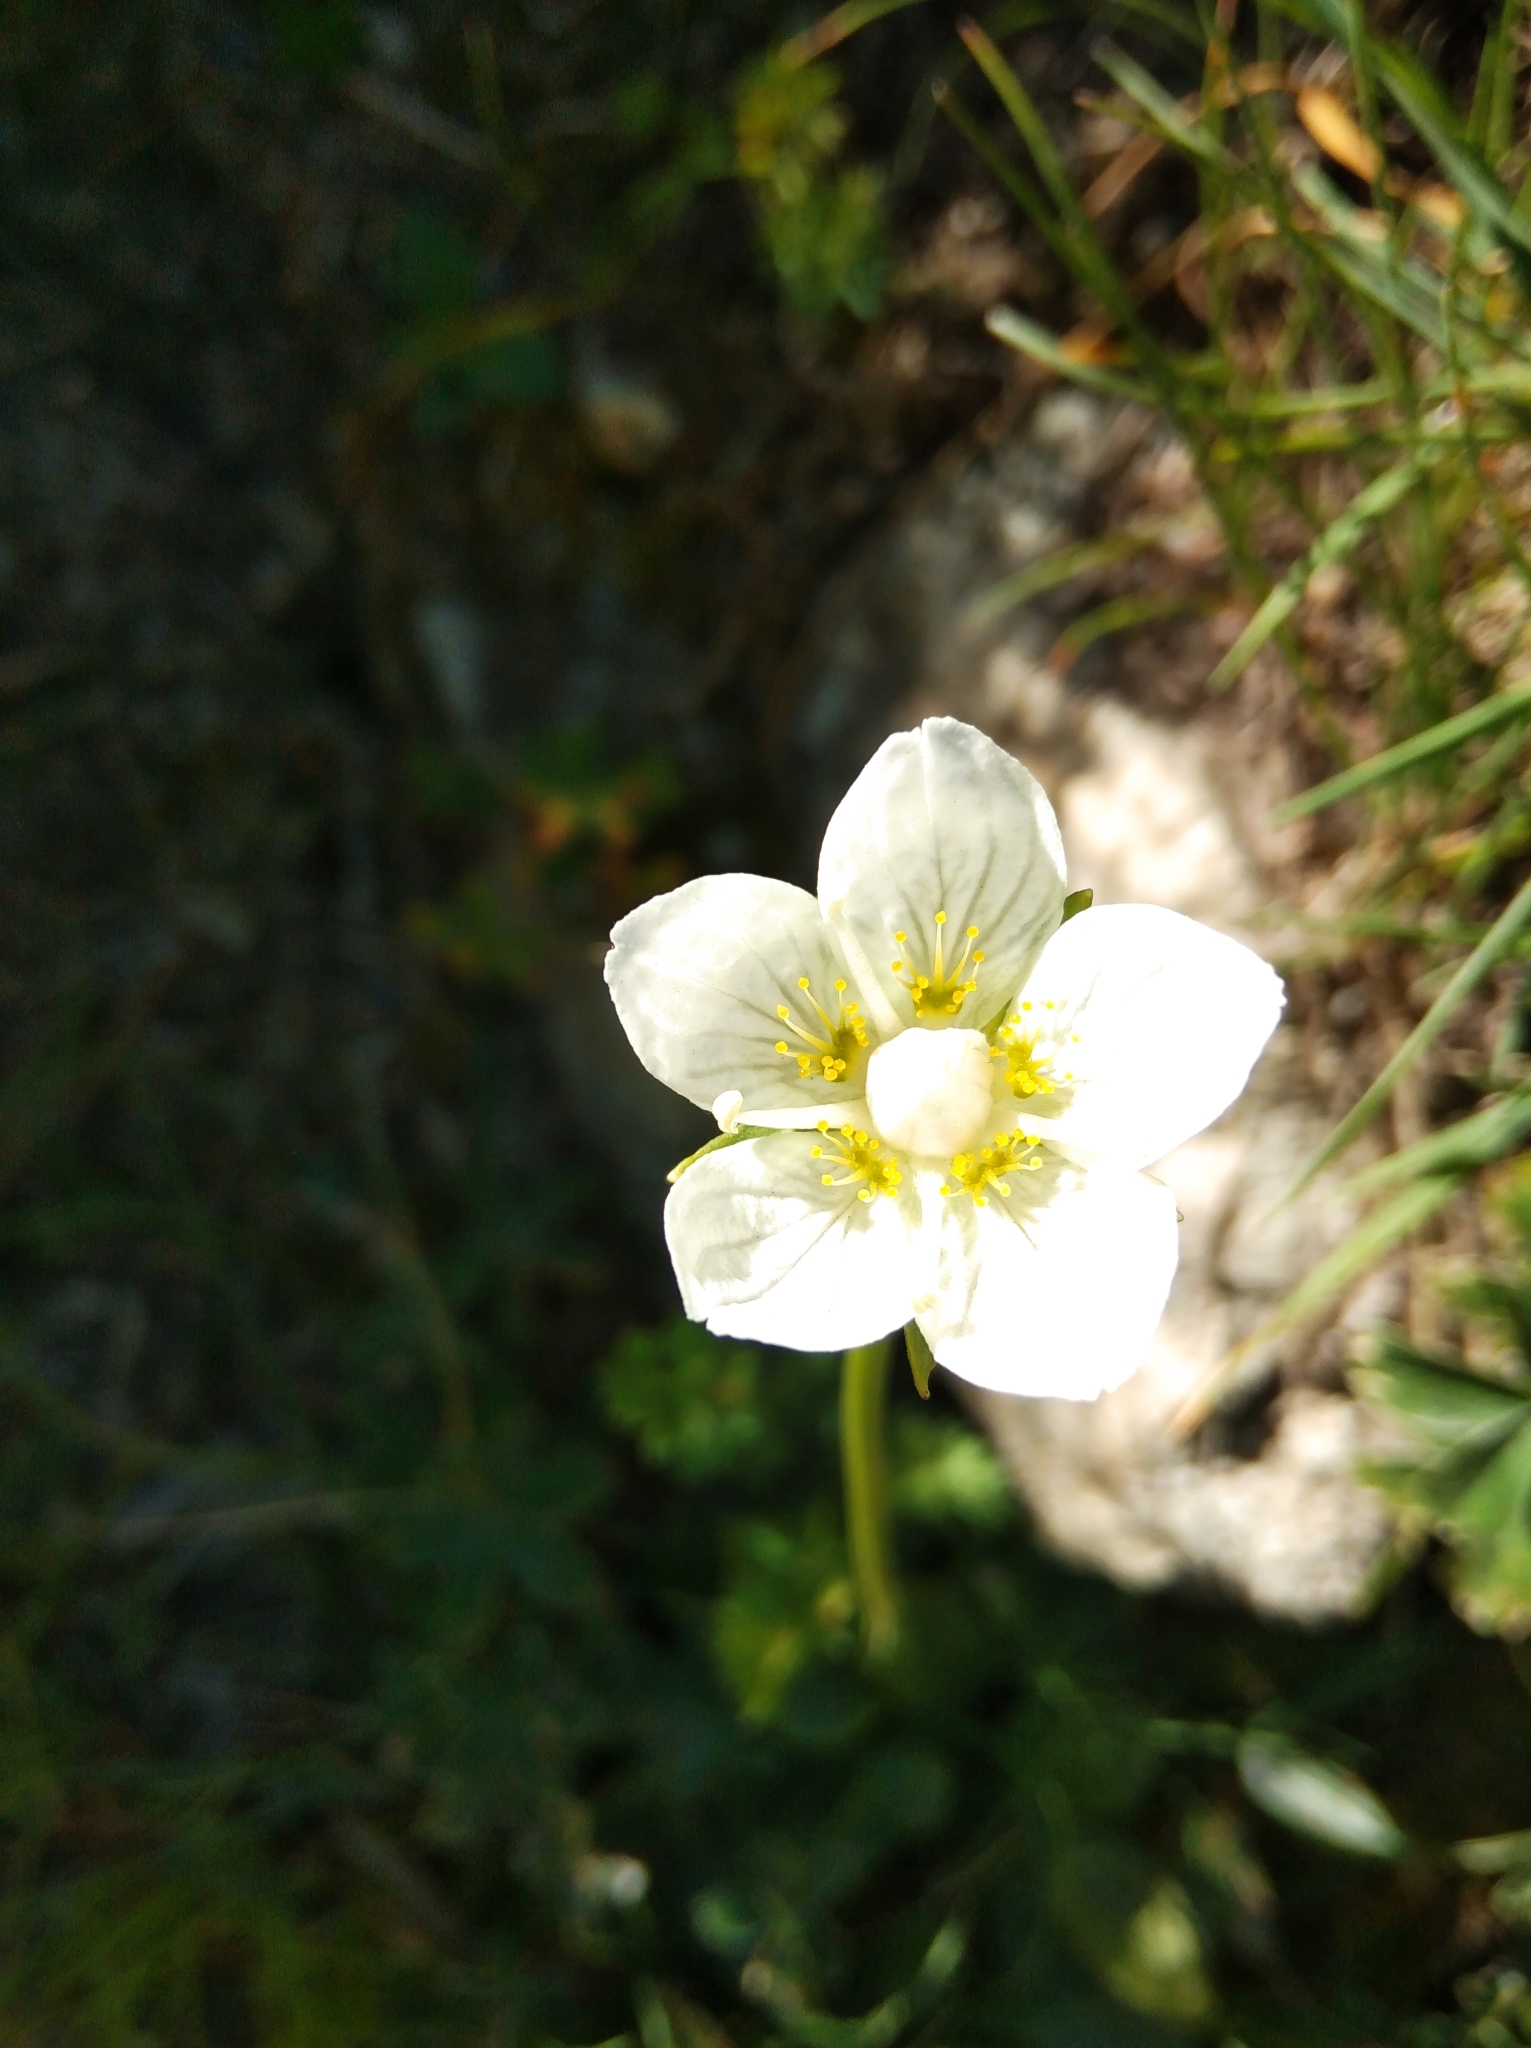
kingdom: Plantae
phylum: Tracheophyta
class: Magnoliopsida
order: Celastrales
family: Parnassiaceae
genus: Parnassia
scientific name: Parnassia palustris
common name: Grass-of-parnassus
